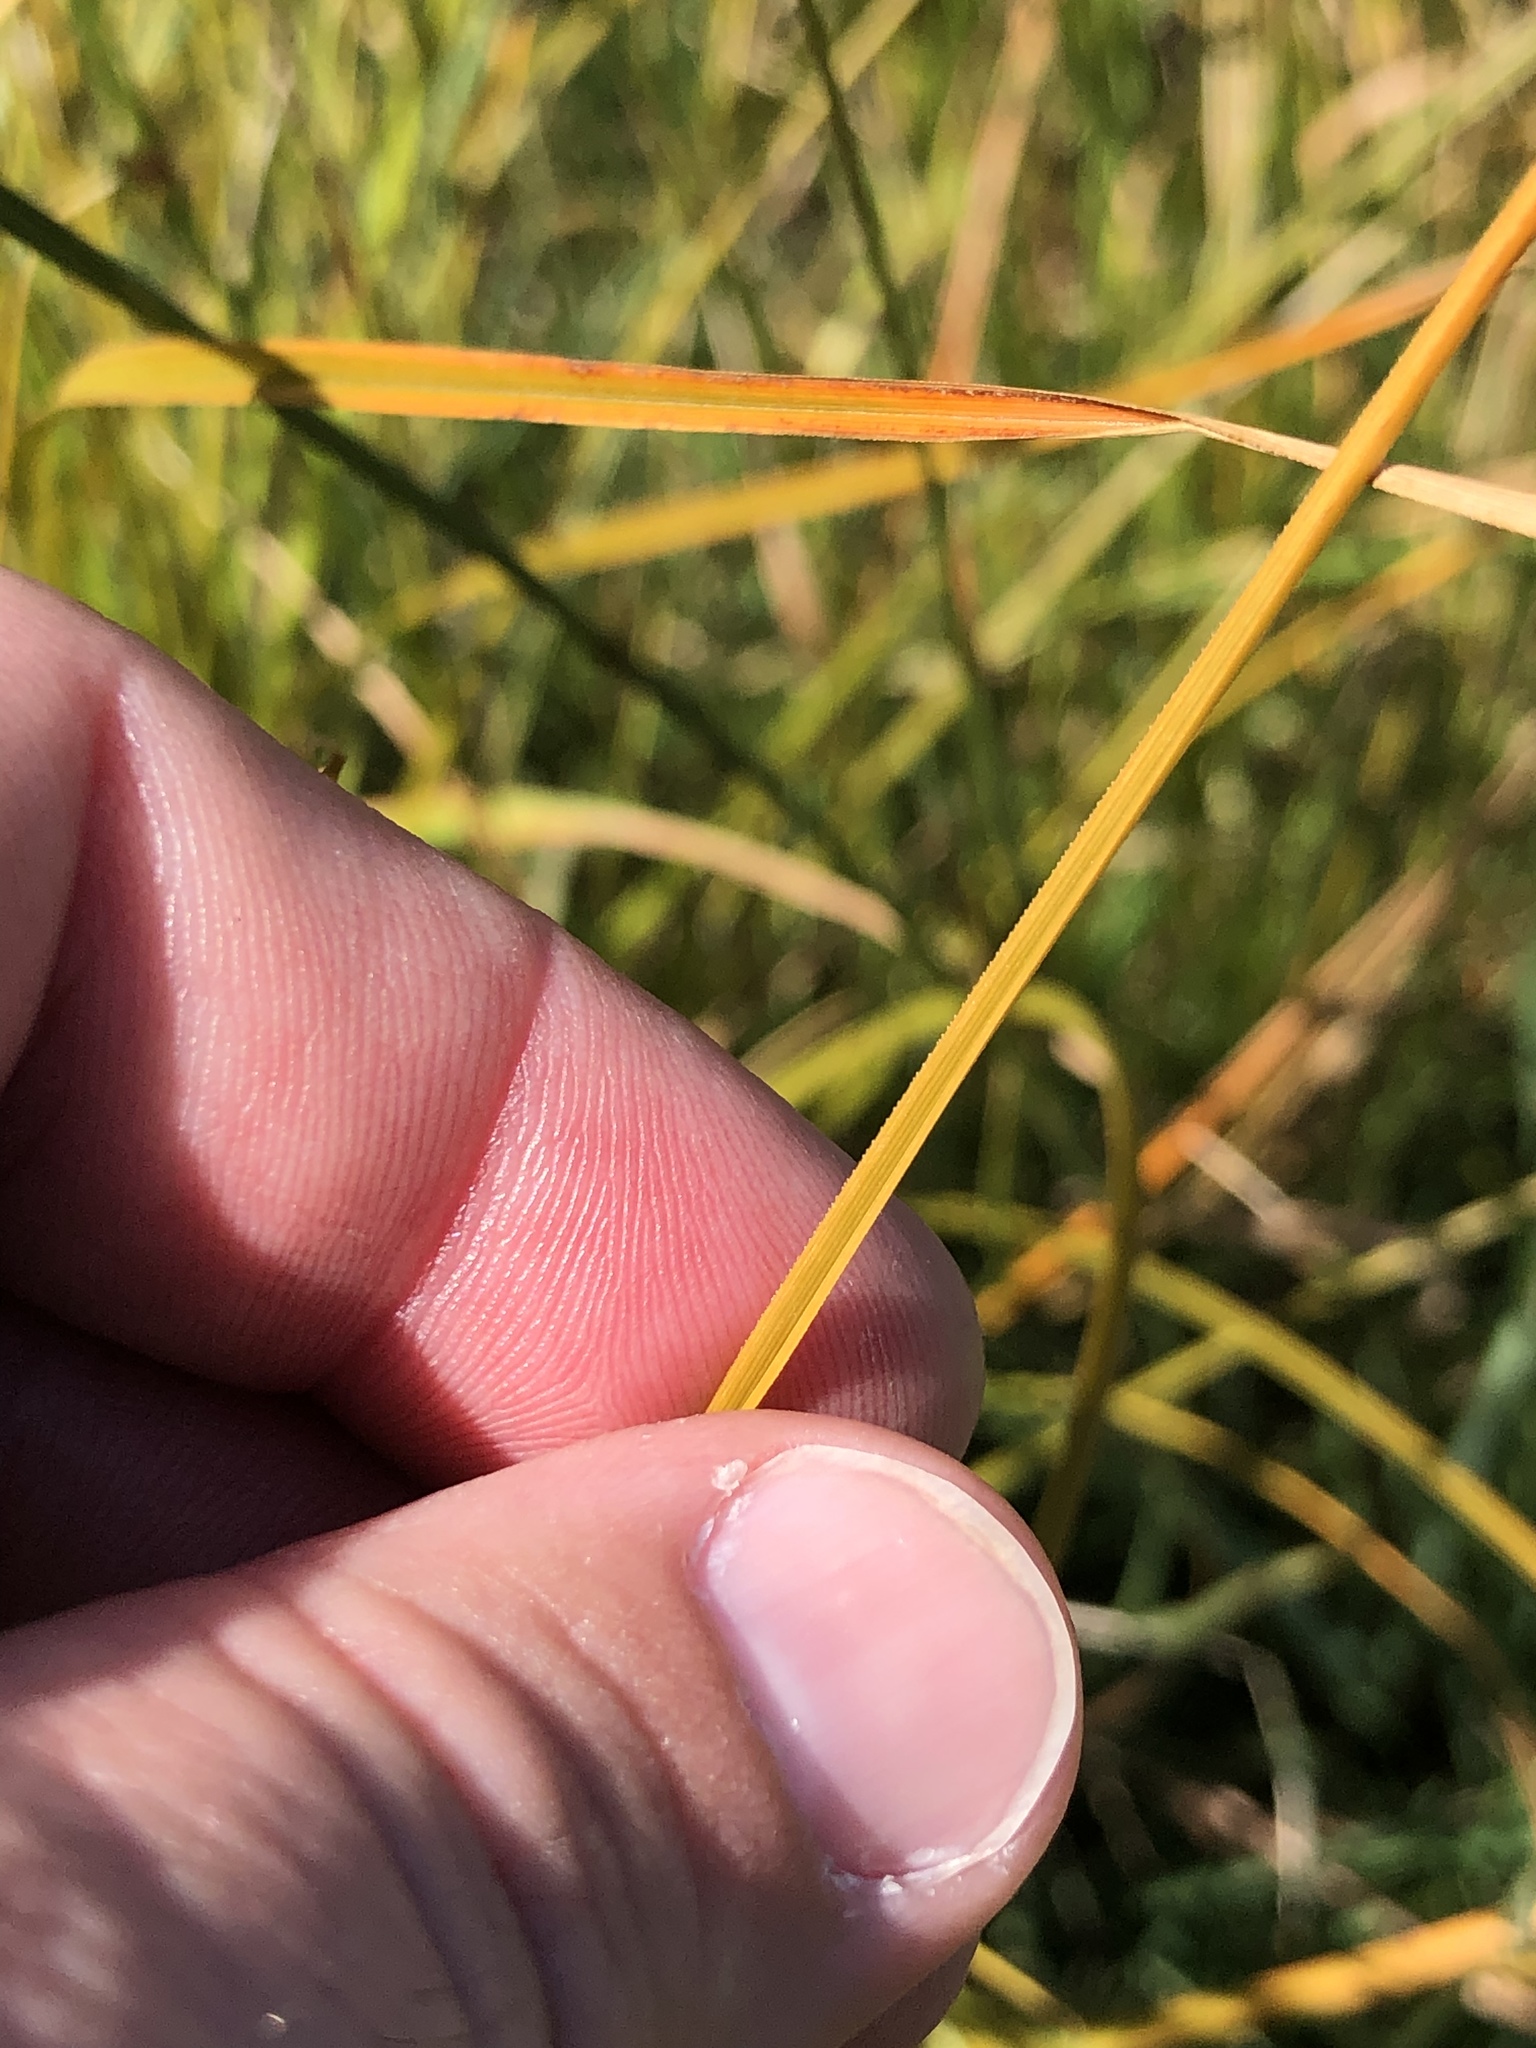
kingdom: Plantae
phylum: Tracheophyta
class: Liliopsida
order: Poales
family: Poaceae
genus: Phleum
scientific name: Phleum pratense
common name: Timothy grass
